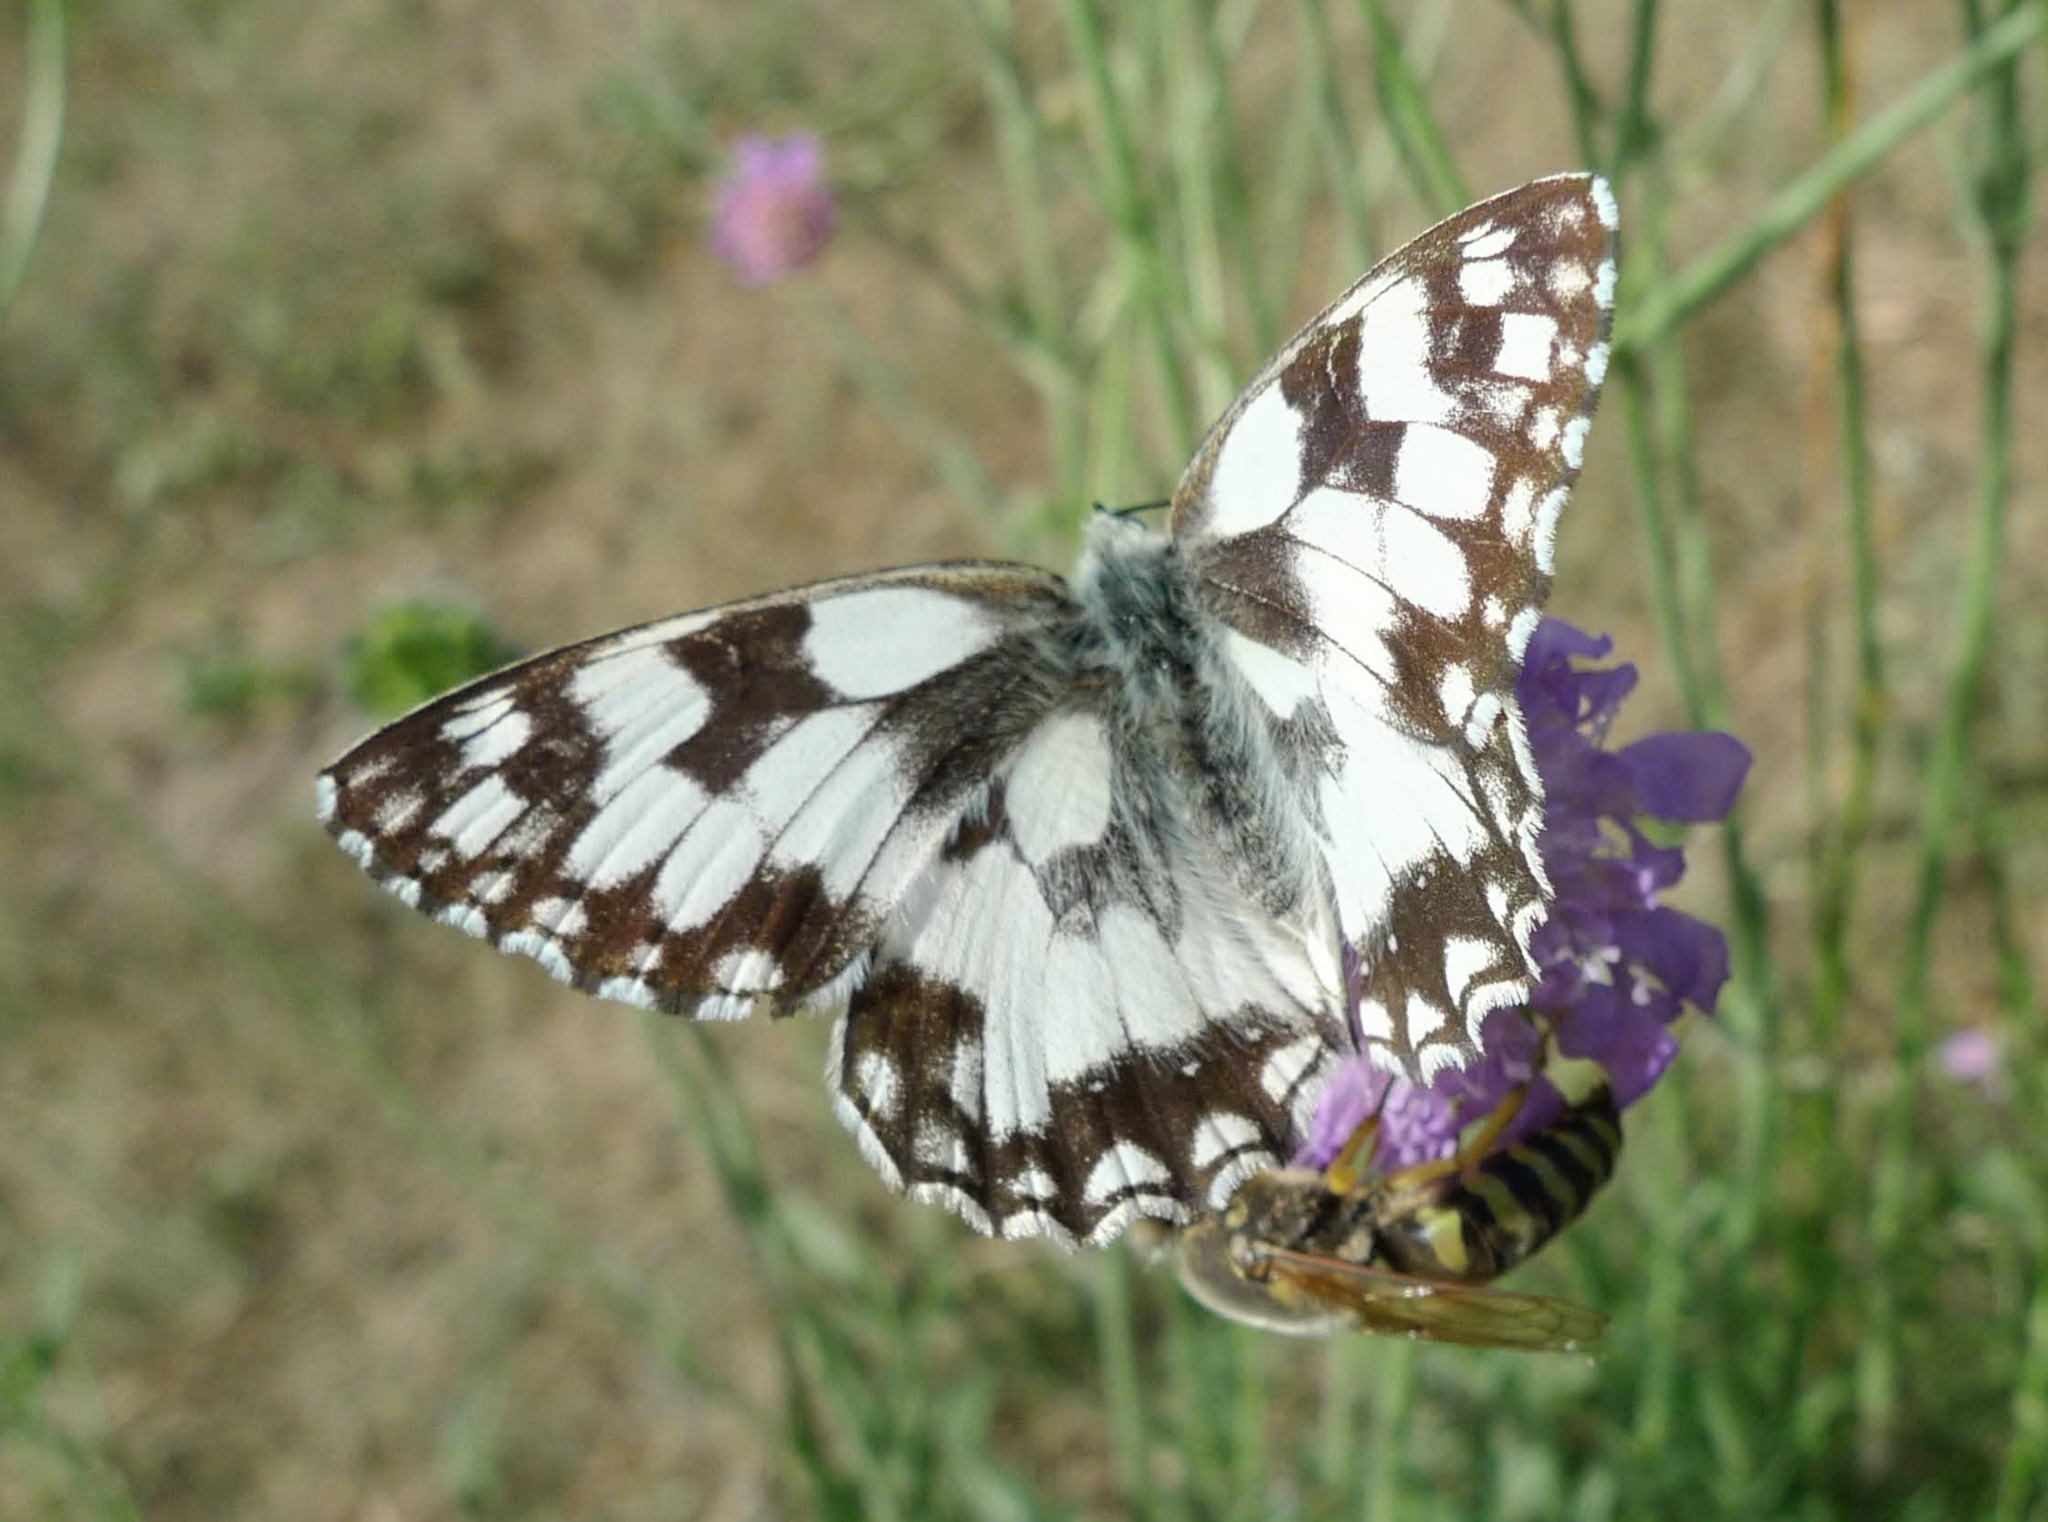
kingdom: Animalia
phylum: Arthropoda
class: Insecta
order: Lepidoptera
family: Nymphalidae
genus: Melanargia
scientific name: Melanargia galathea
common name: Marbled white
